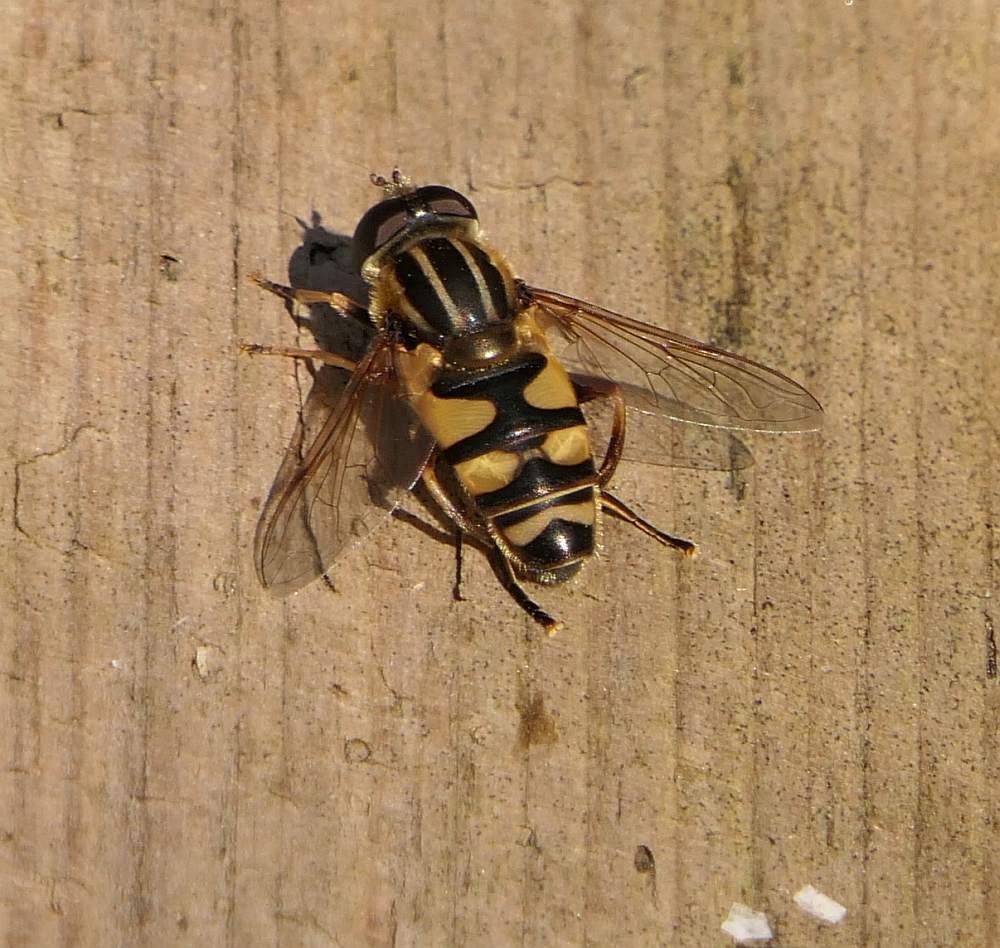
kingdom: Animalia
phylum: Arthropoda
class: Insecta
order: Diptera
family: Syrphidae
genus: Helophilus
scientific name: Helophilus fasciatus
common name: Narrow-headed marsh fly
